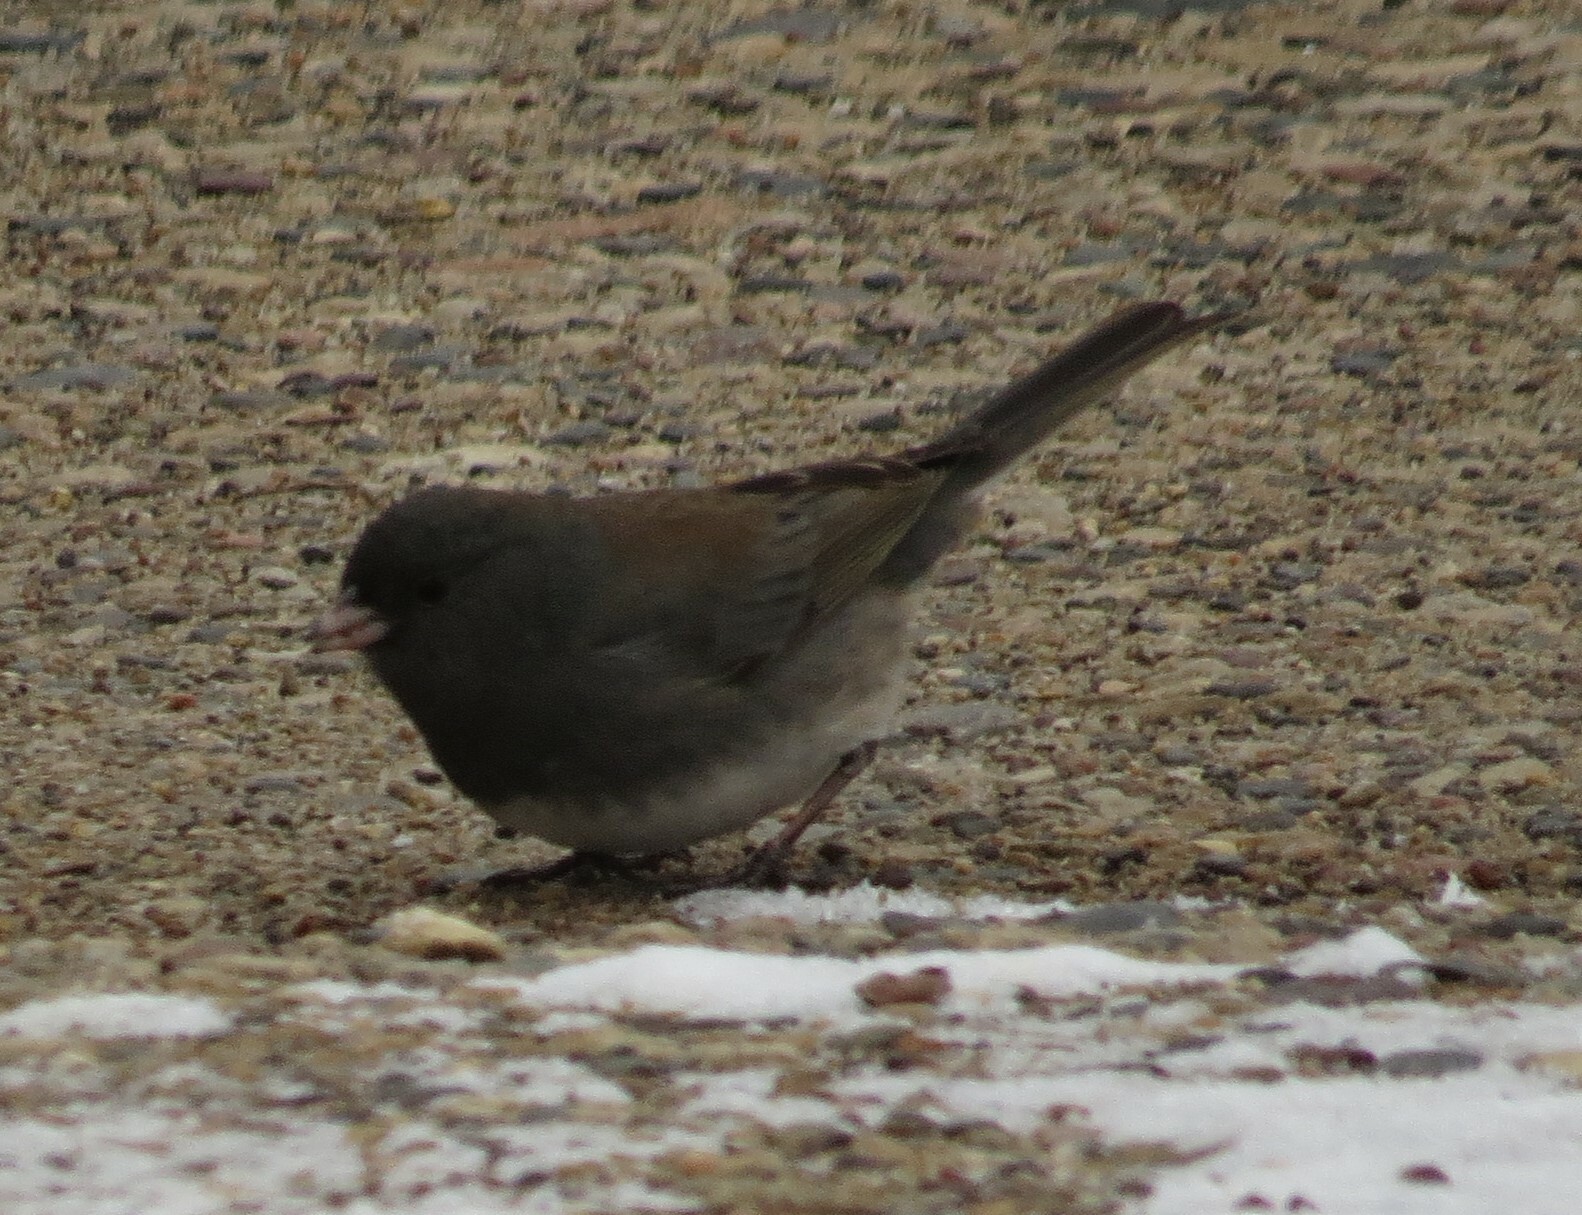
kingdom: Animalia
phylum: Chordata
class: Aves
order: Passeriformes
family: Passerellidae
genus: Junco
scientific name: Junco hyemalis
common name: Dark-eyed junco
